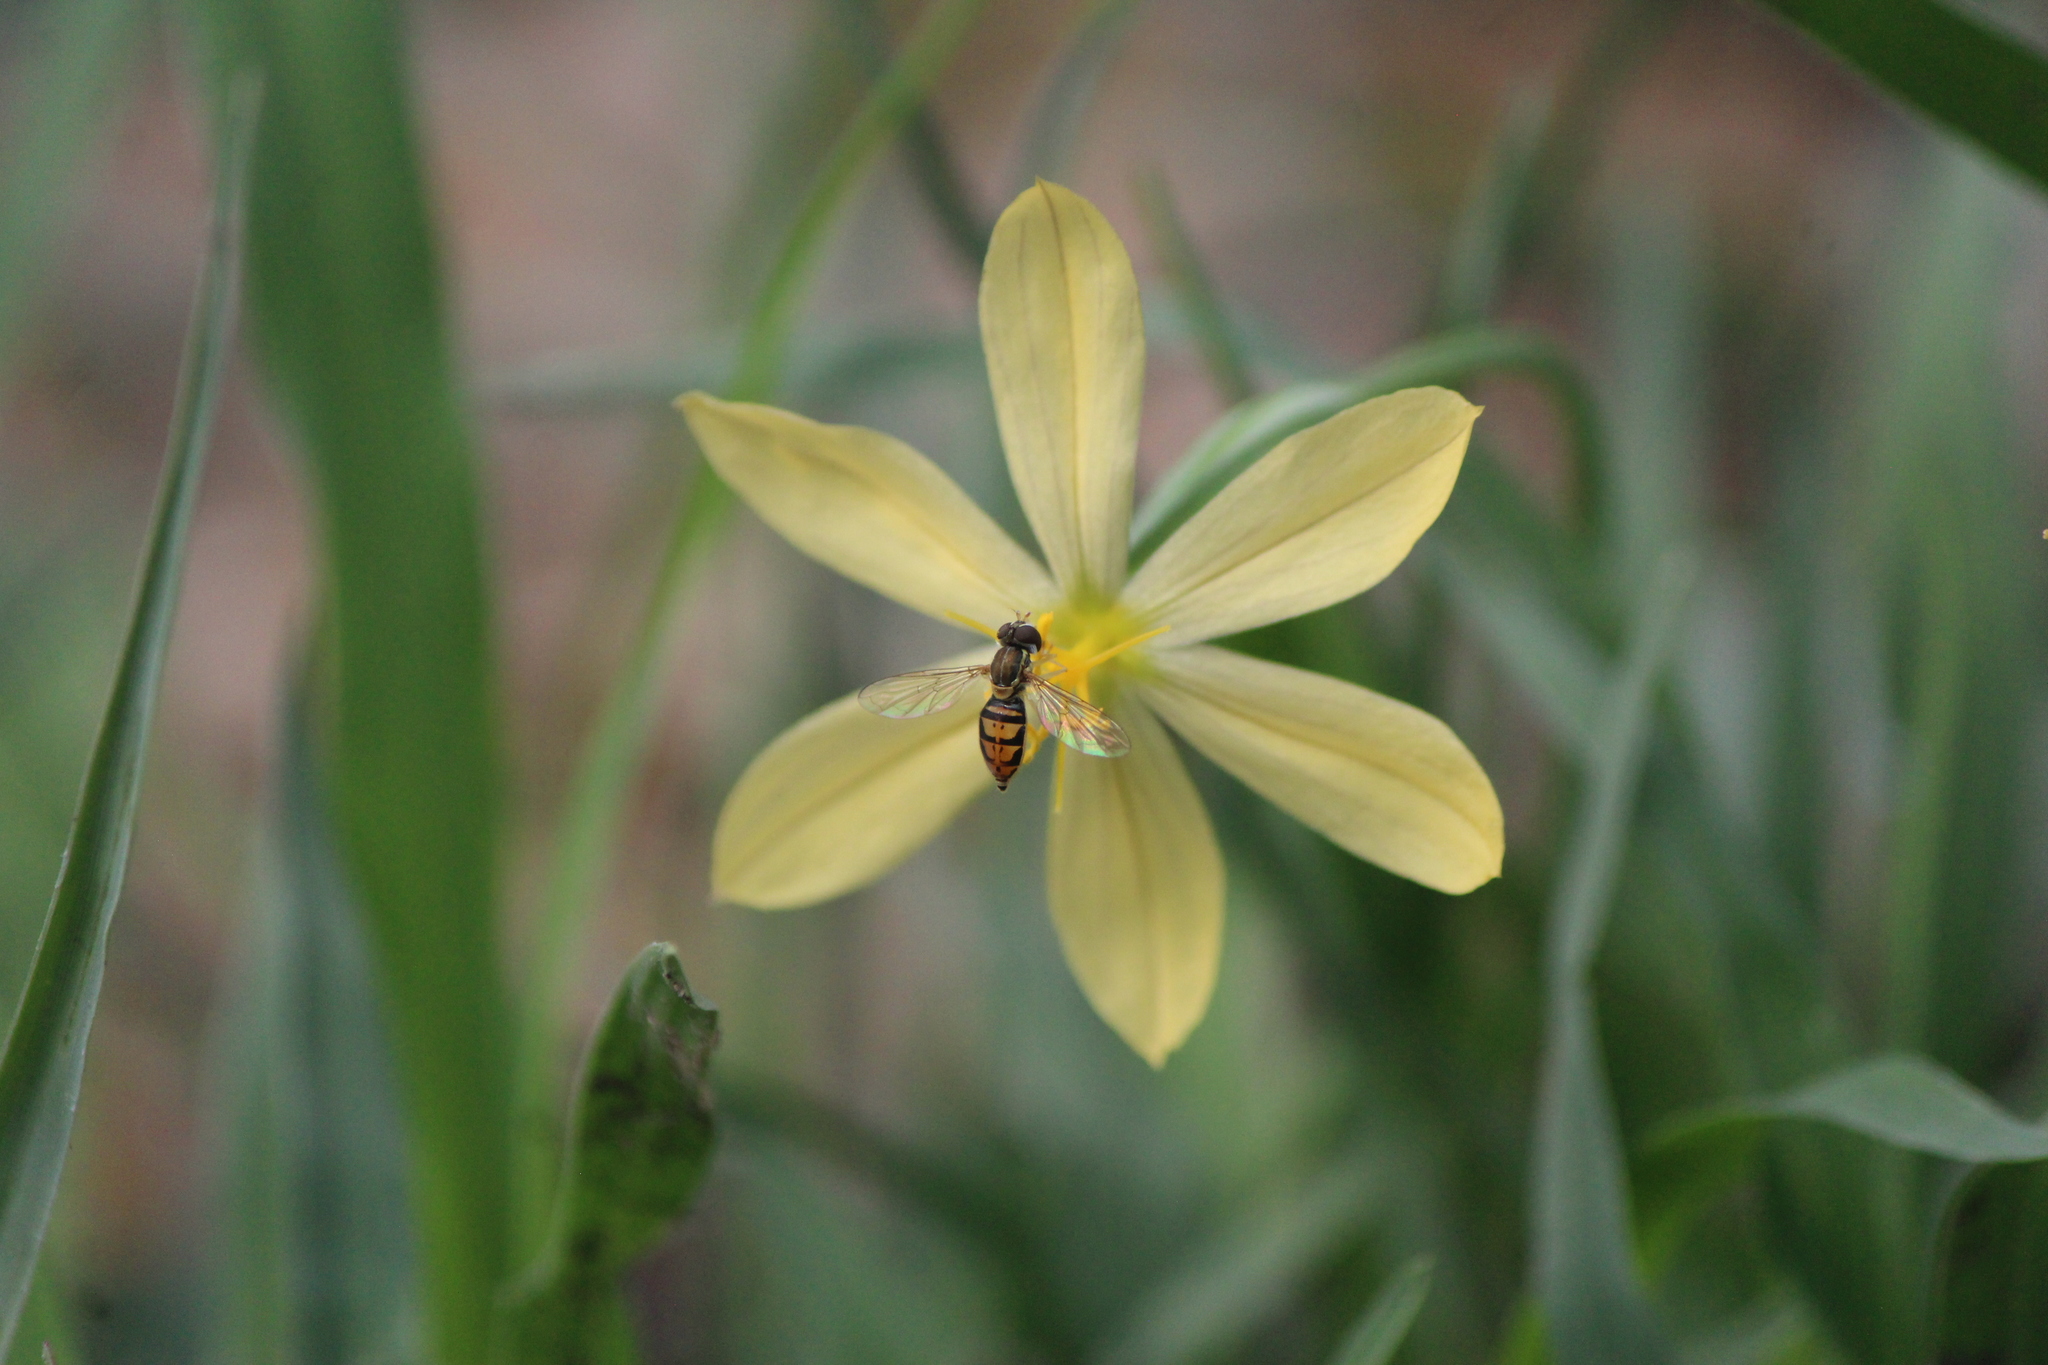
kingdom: Animalia
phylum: Arthropoda
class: Insecta
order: Diptera
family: Syrphidae
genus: Toxomerus
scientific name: Toxomerus marginatus
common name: Syrphid fly
